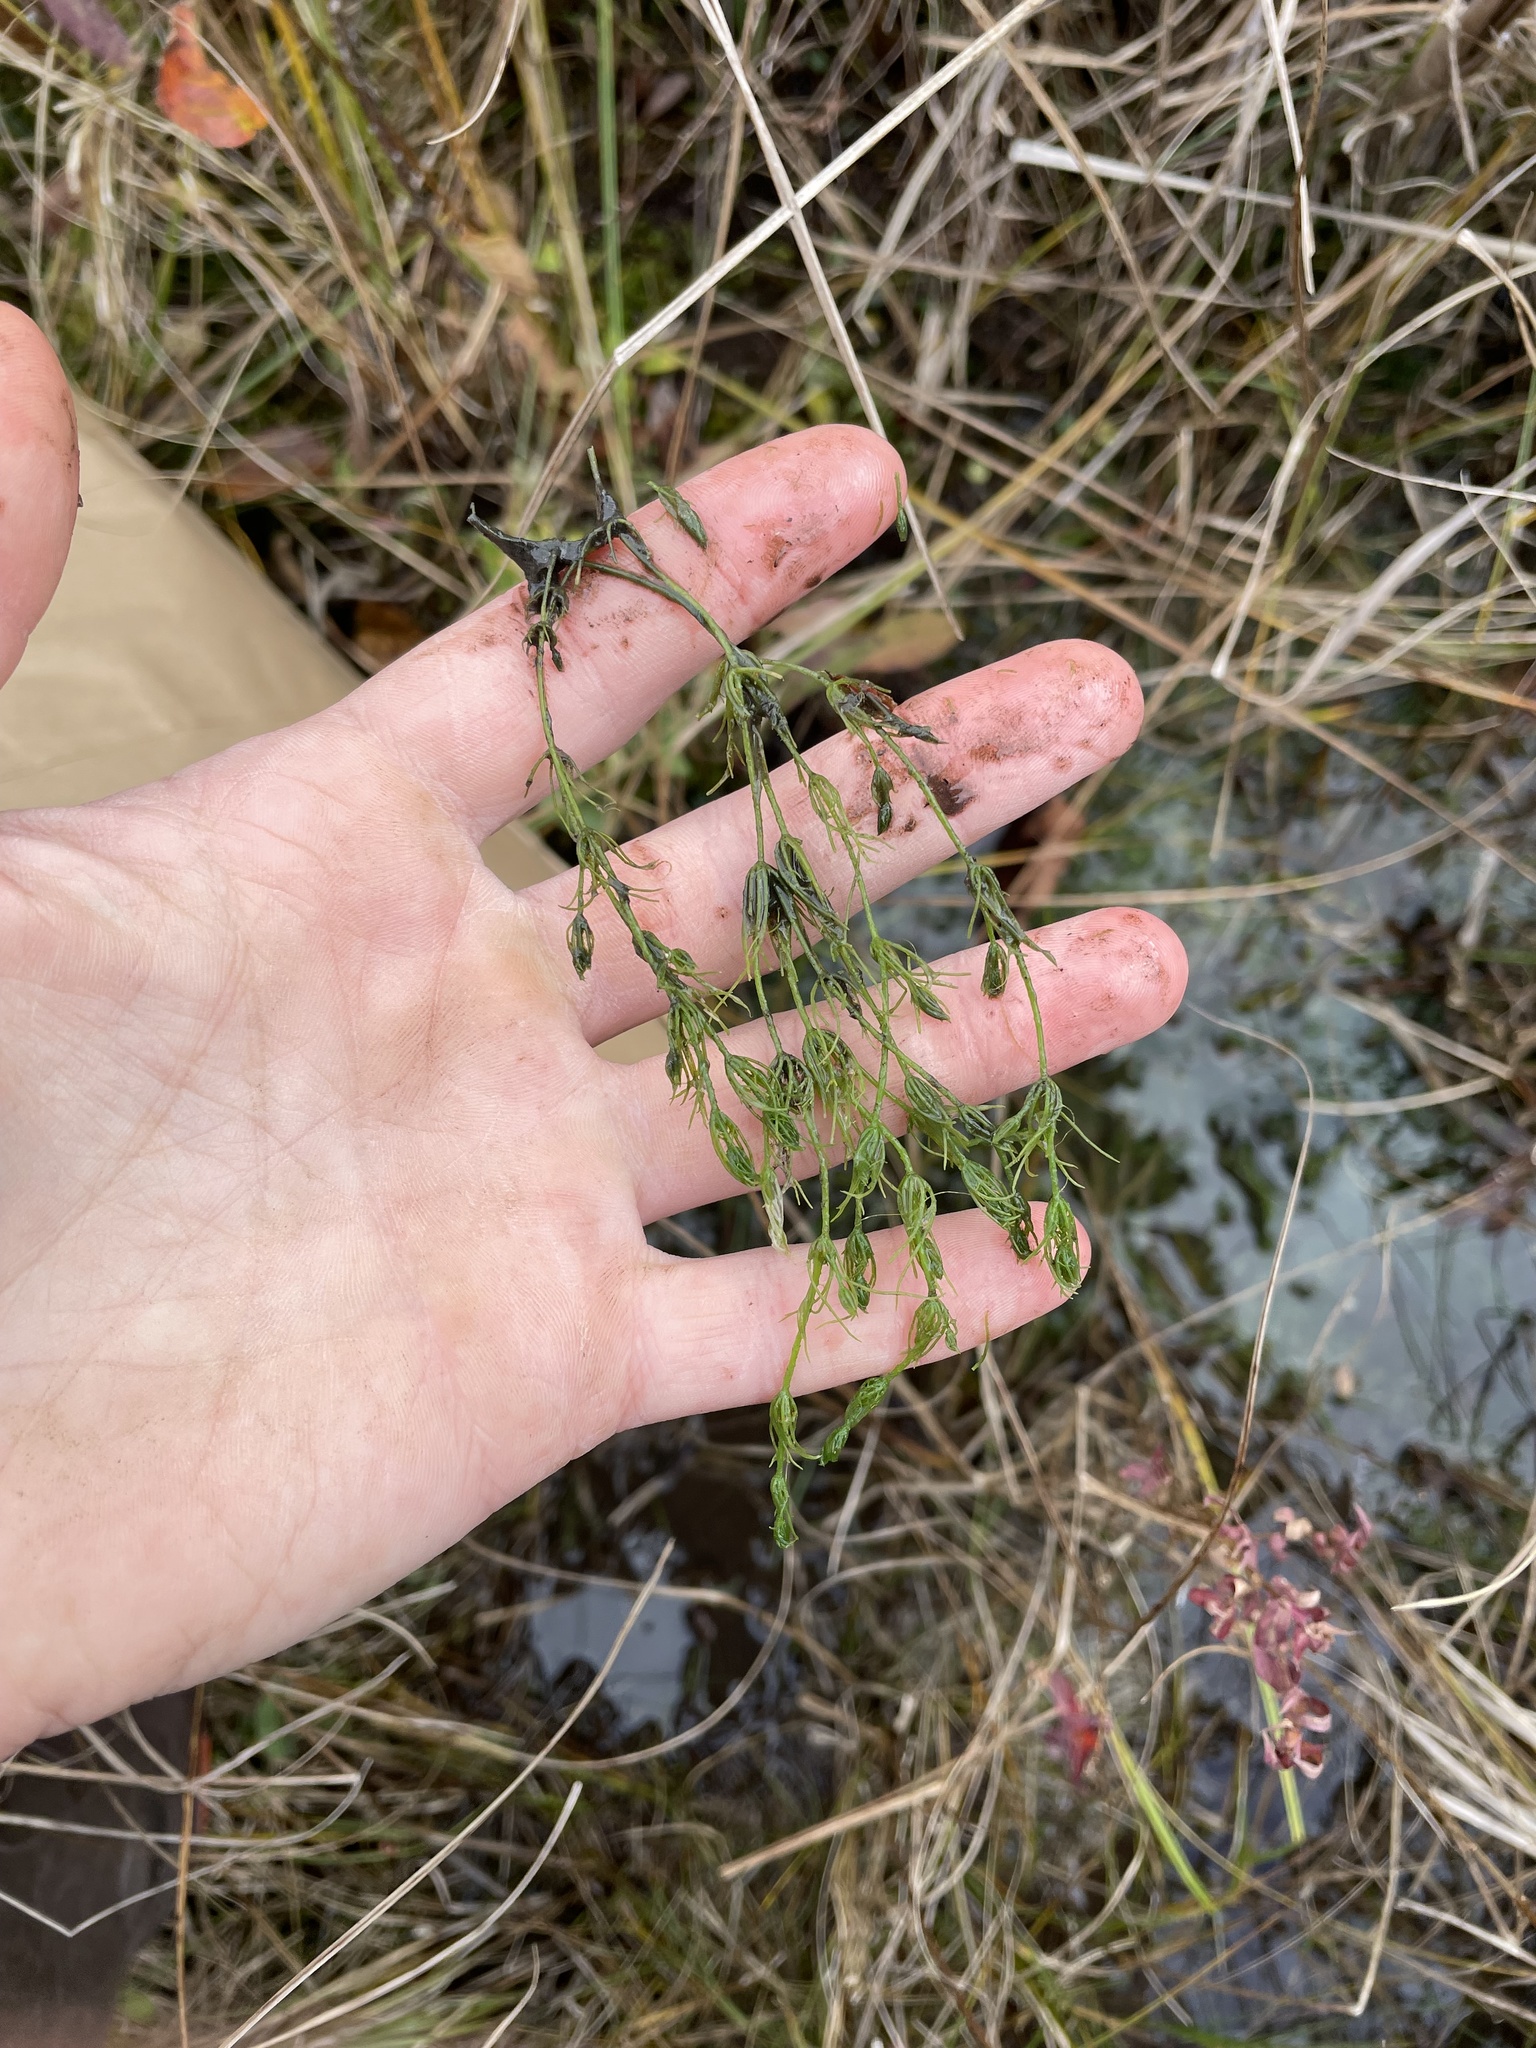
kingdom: Plantae
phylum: Charophyta
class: Charophyceae
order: Charales
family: Characeae
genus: Chara
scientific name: Chara vulgaris
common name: Common stonewort
